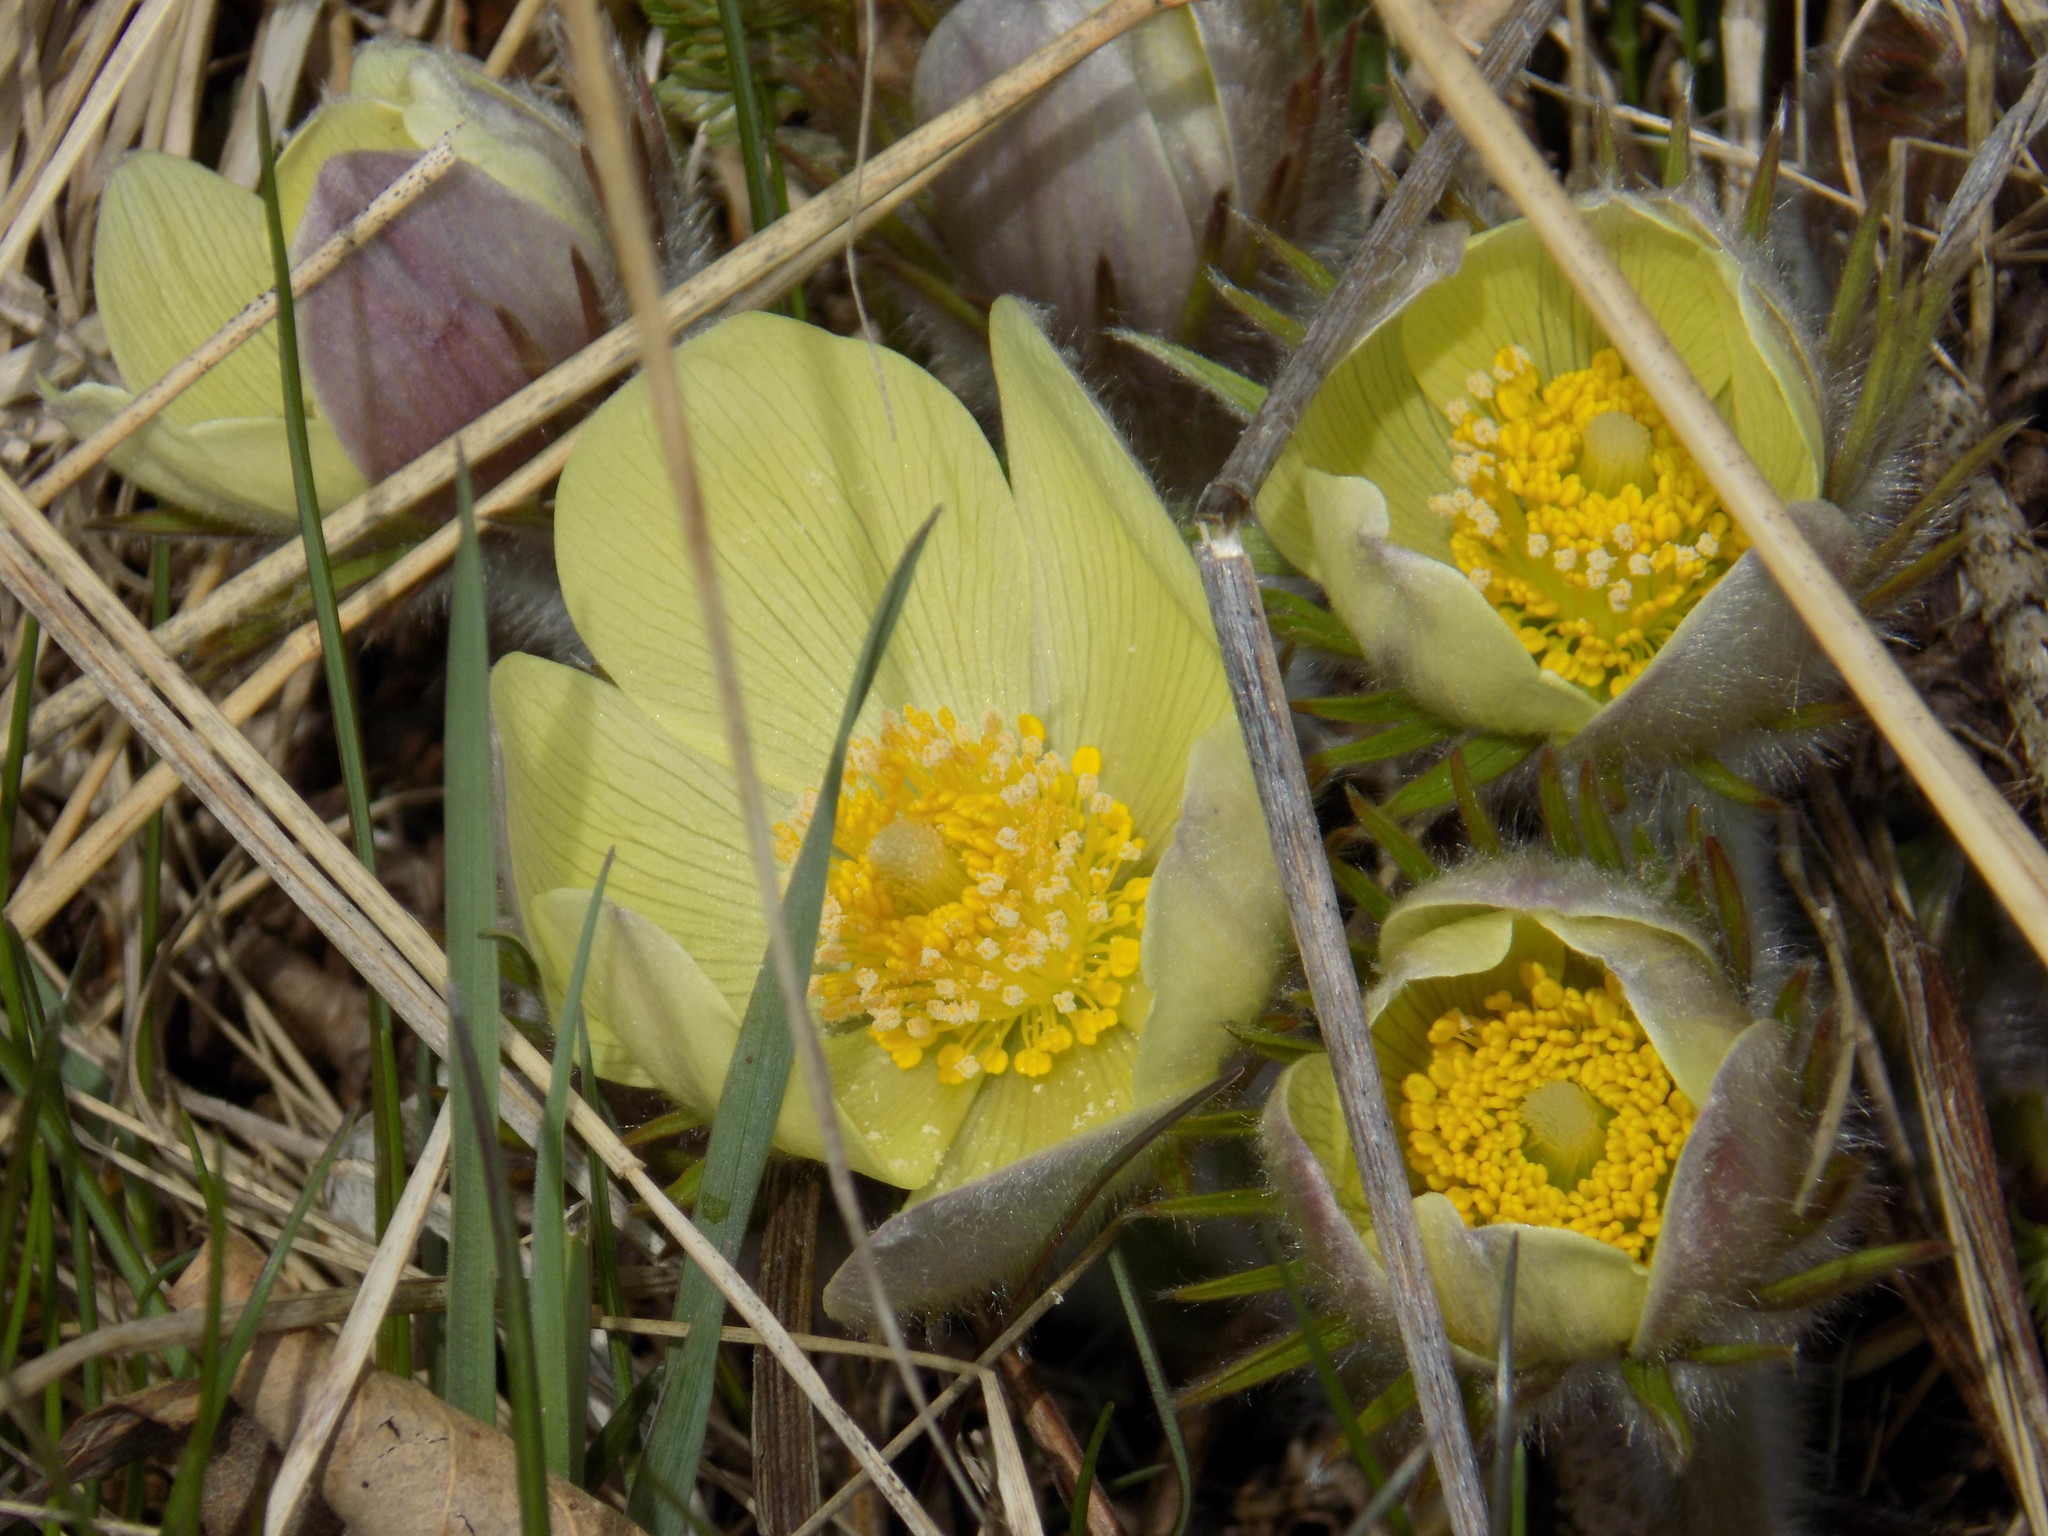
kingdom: Plantae
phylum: Tracheophyta
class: Magnoliopsida
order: Ranunculales
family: Ranunculaceae
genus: Pulsatilla
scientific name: Pulsatilla patens
